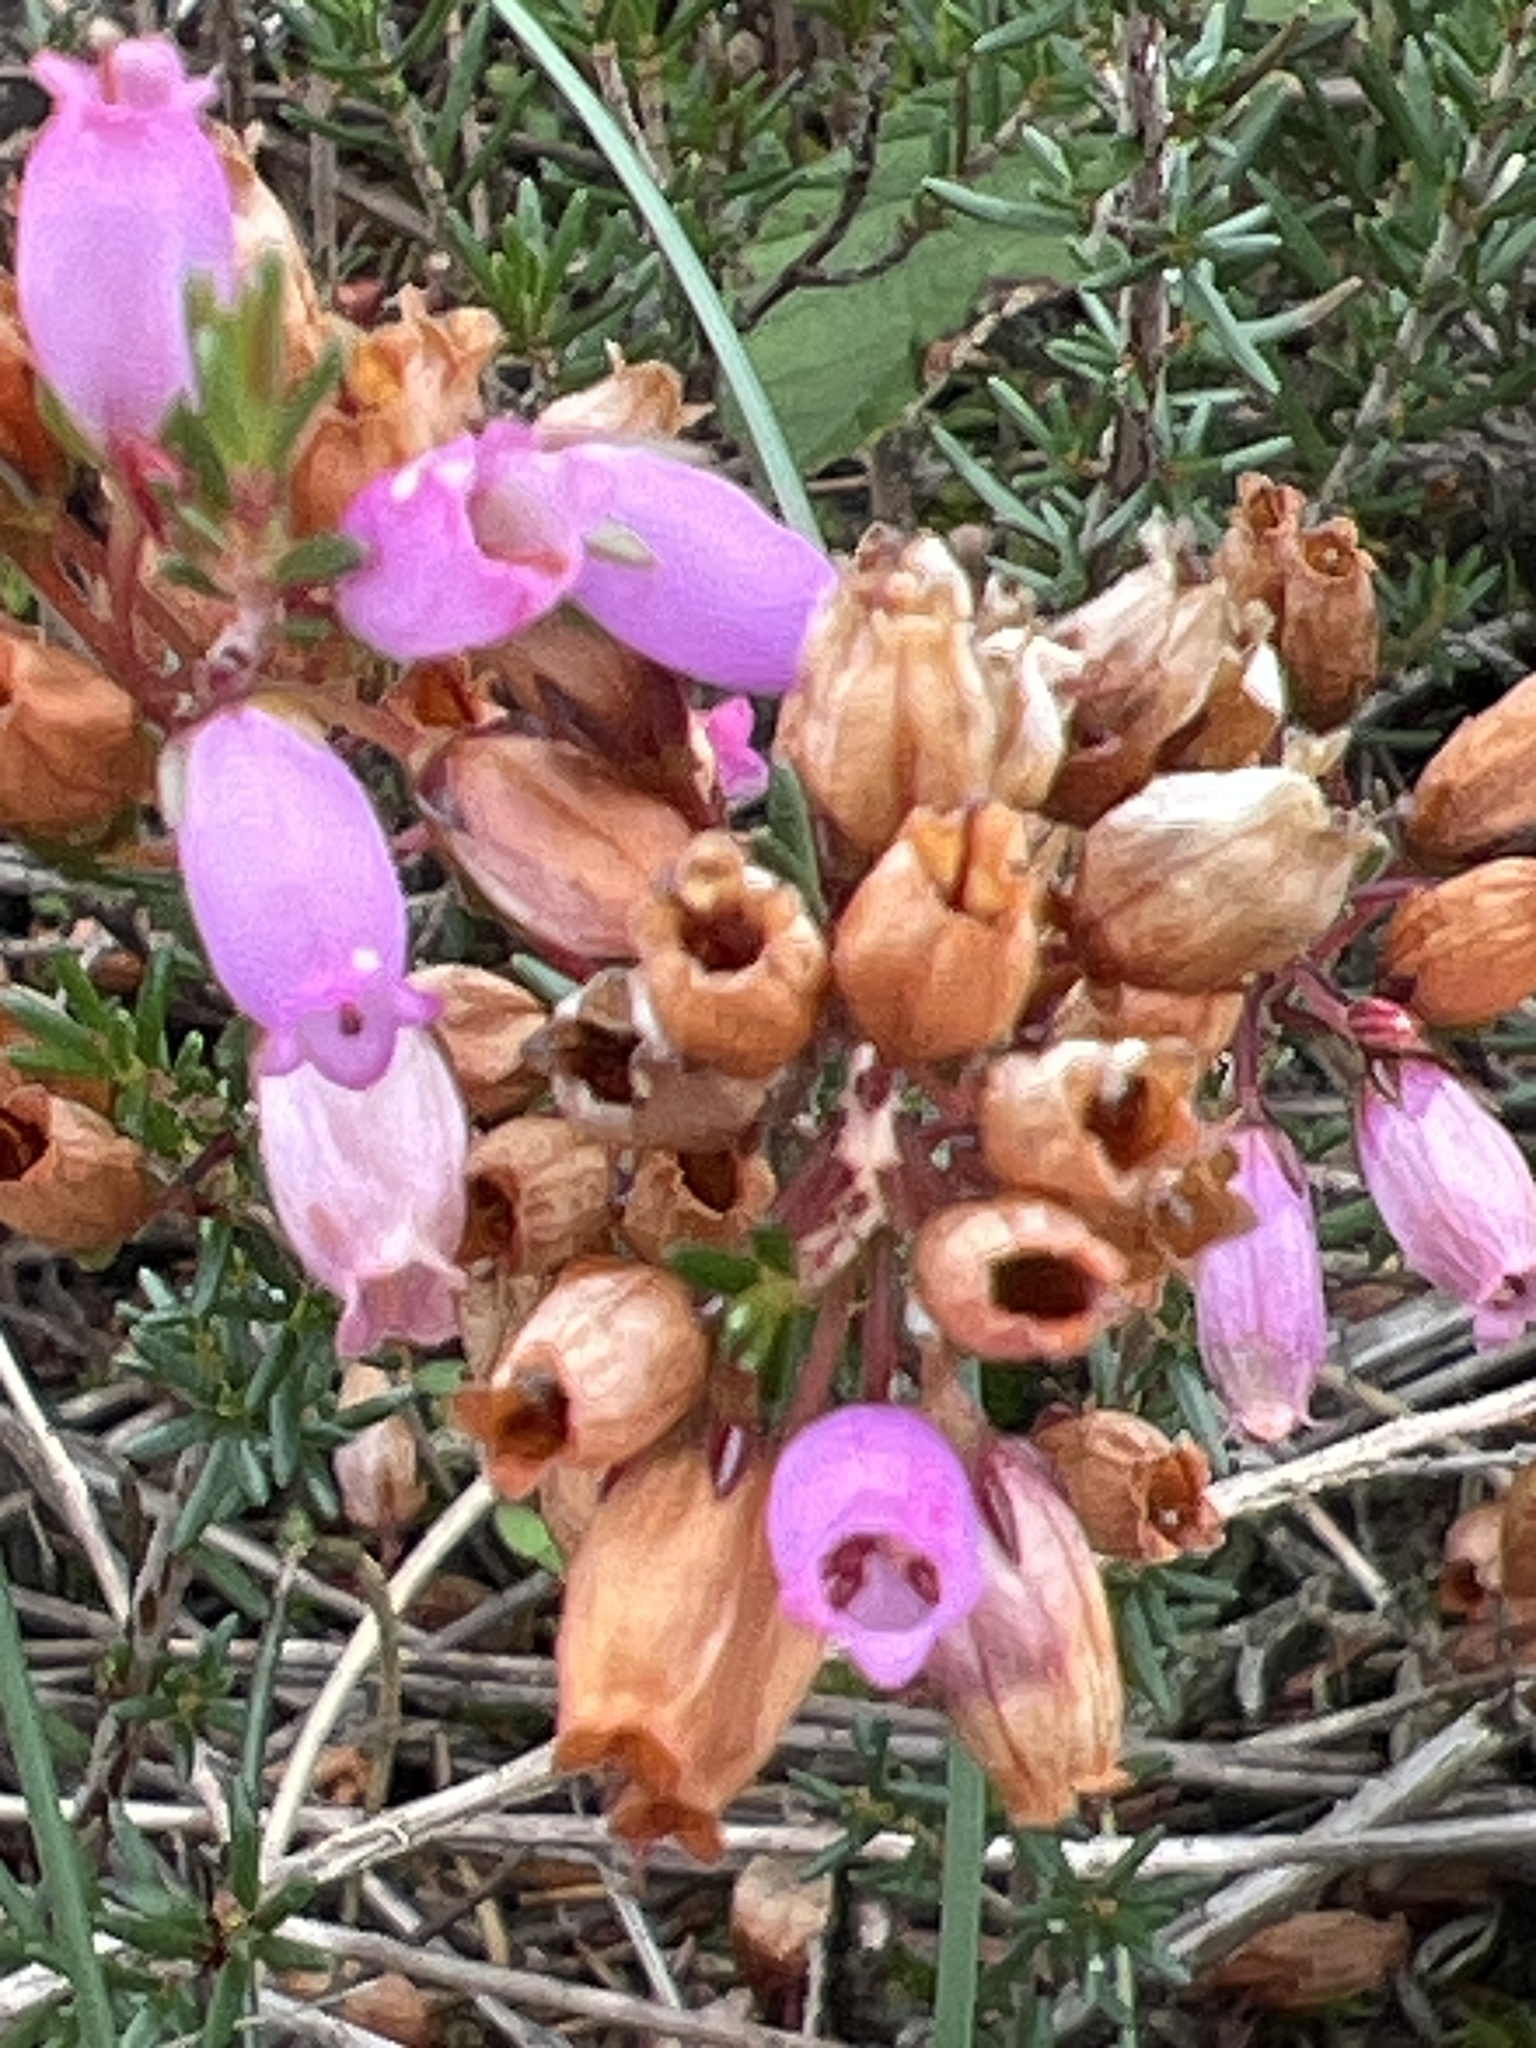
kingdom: Plantae
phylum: Tracheophyta
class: Magnoliopsida
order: Ericales
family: Ericaceae
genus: Erica
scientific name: Erica cinerea
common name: Bell heather
